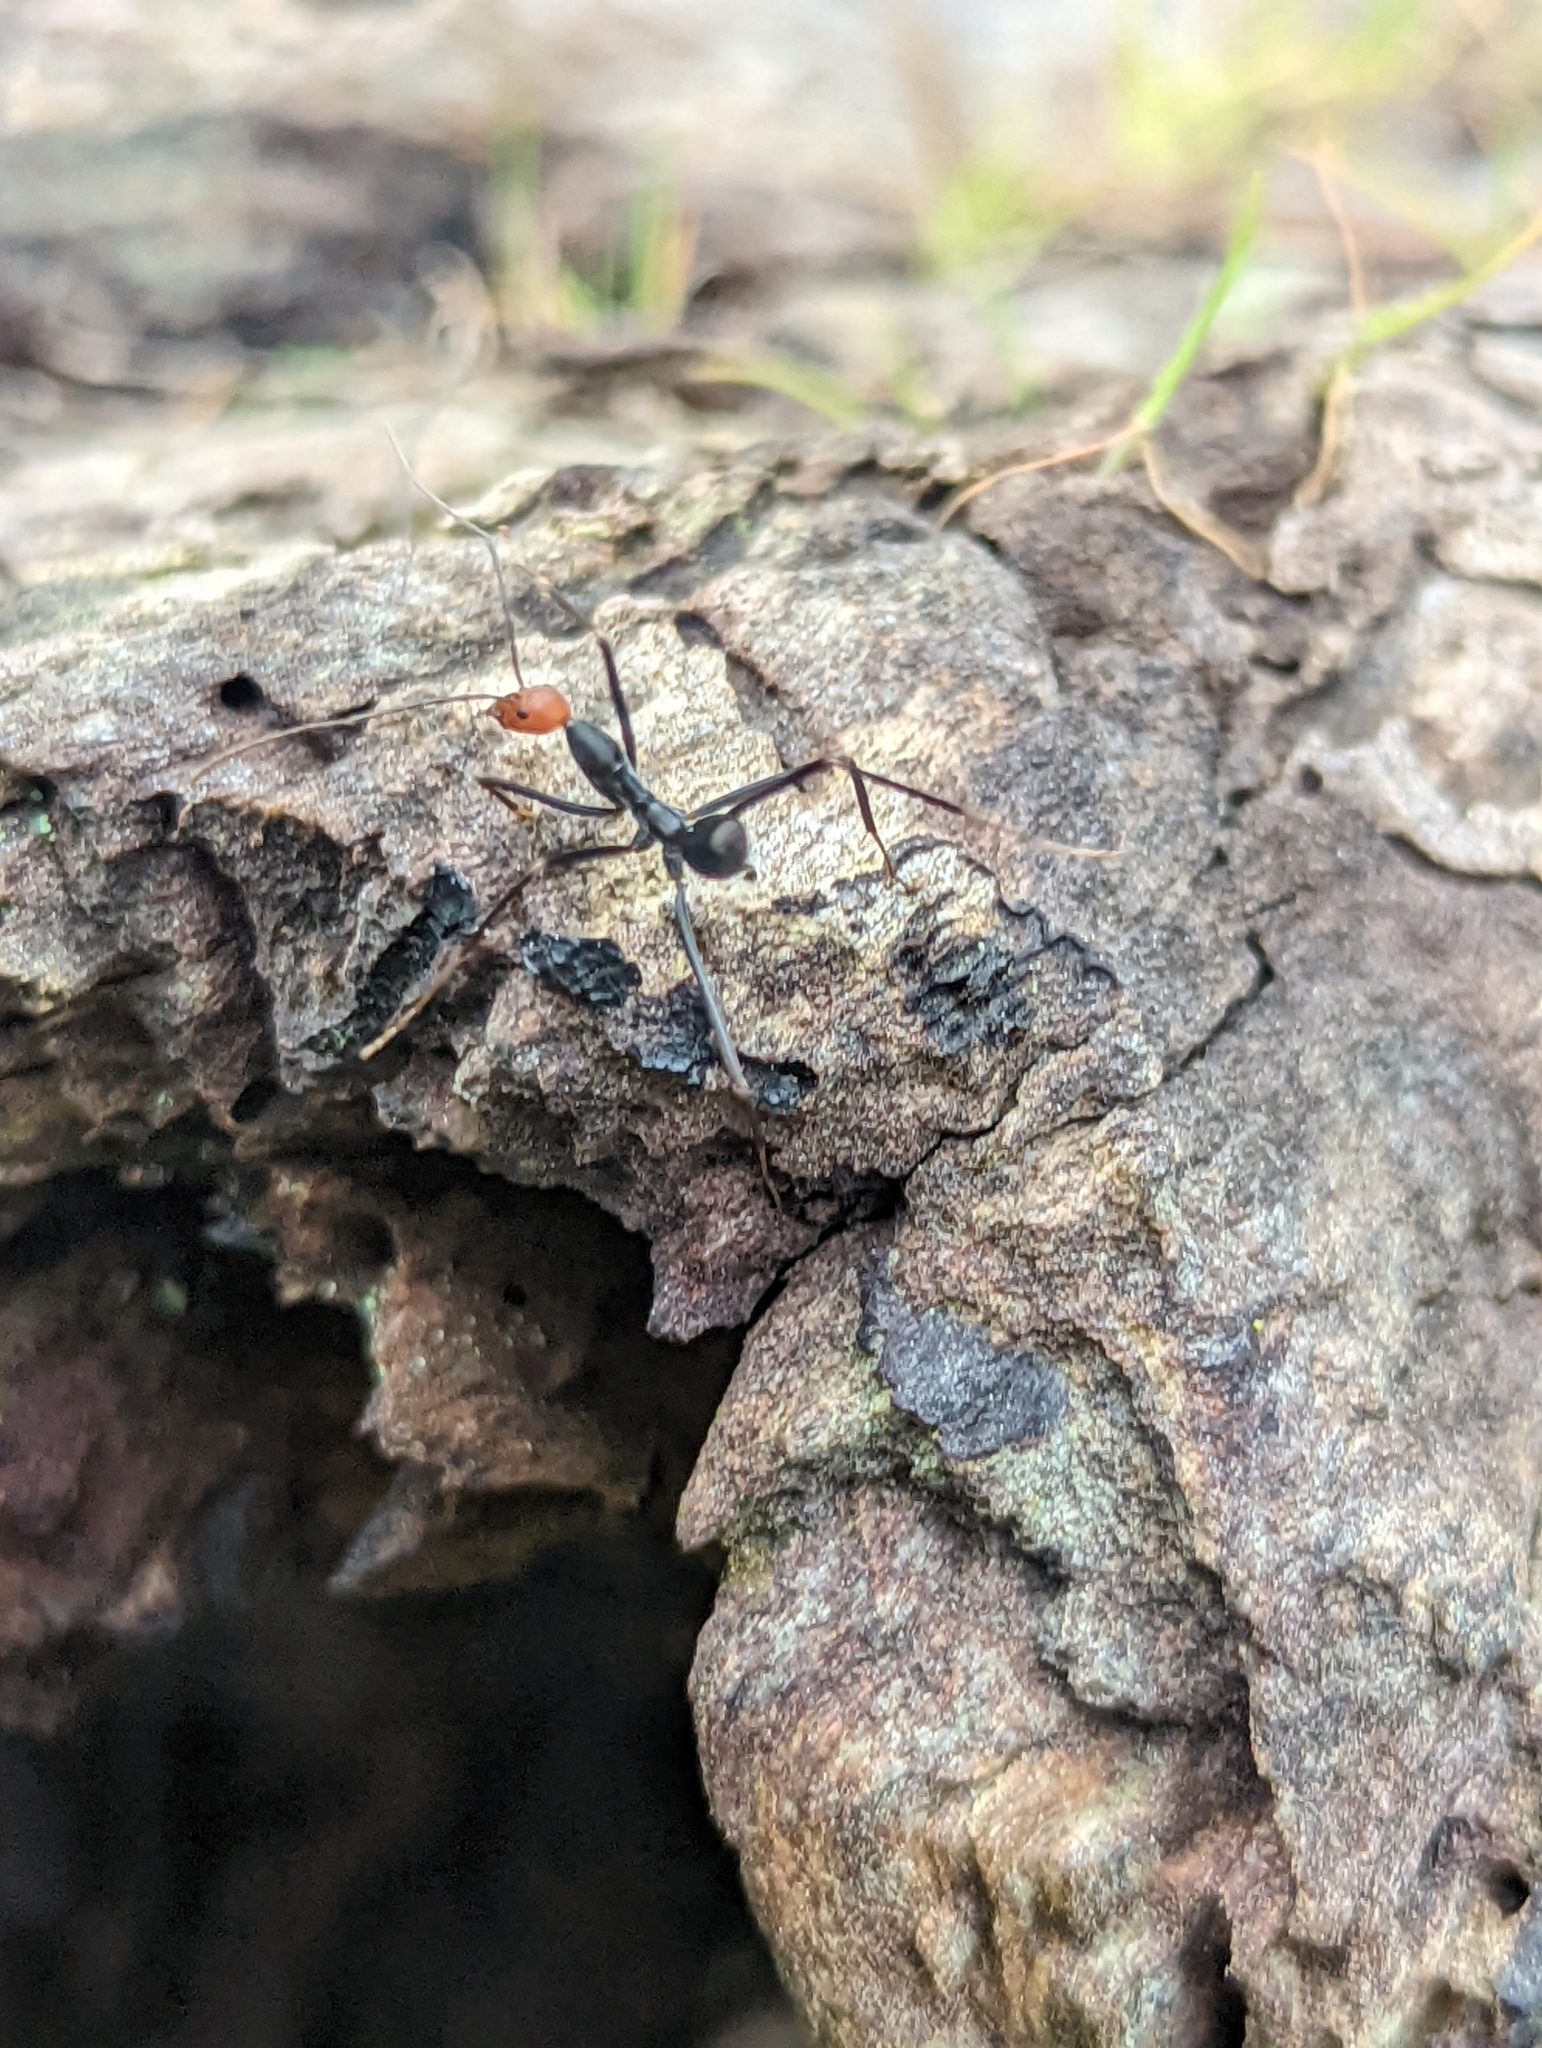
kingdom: Animalia
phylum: Arthropoda
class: Insecta
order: Hymenoptera
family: Formicidae
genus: Leptomyrmex
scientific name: Leptomyrmex erythrocephalus
